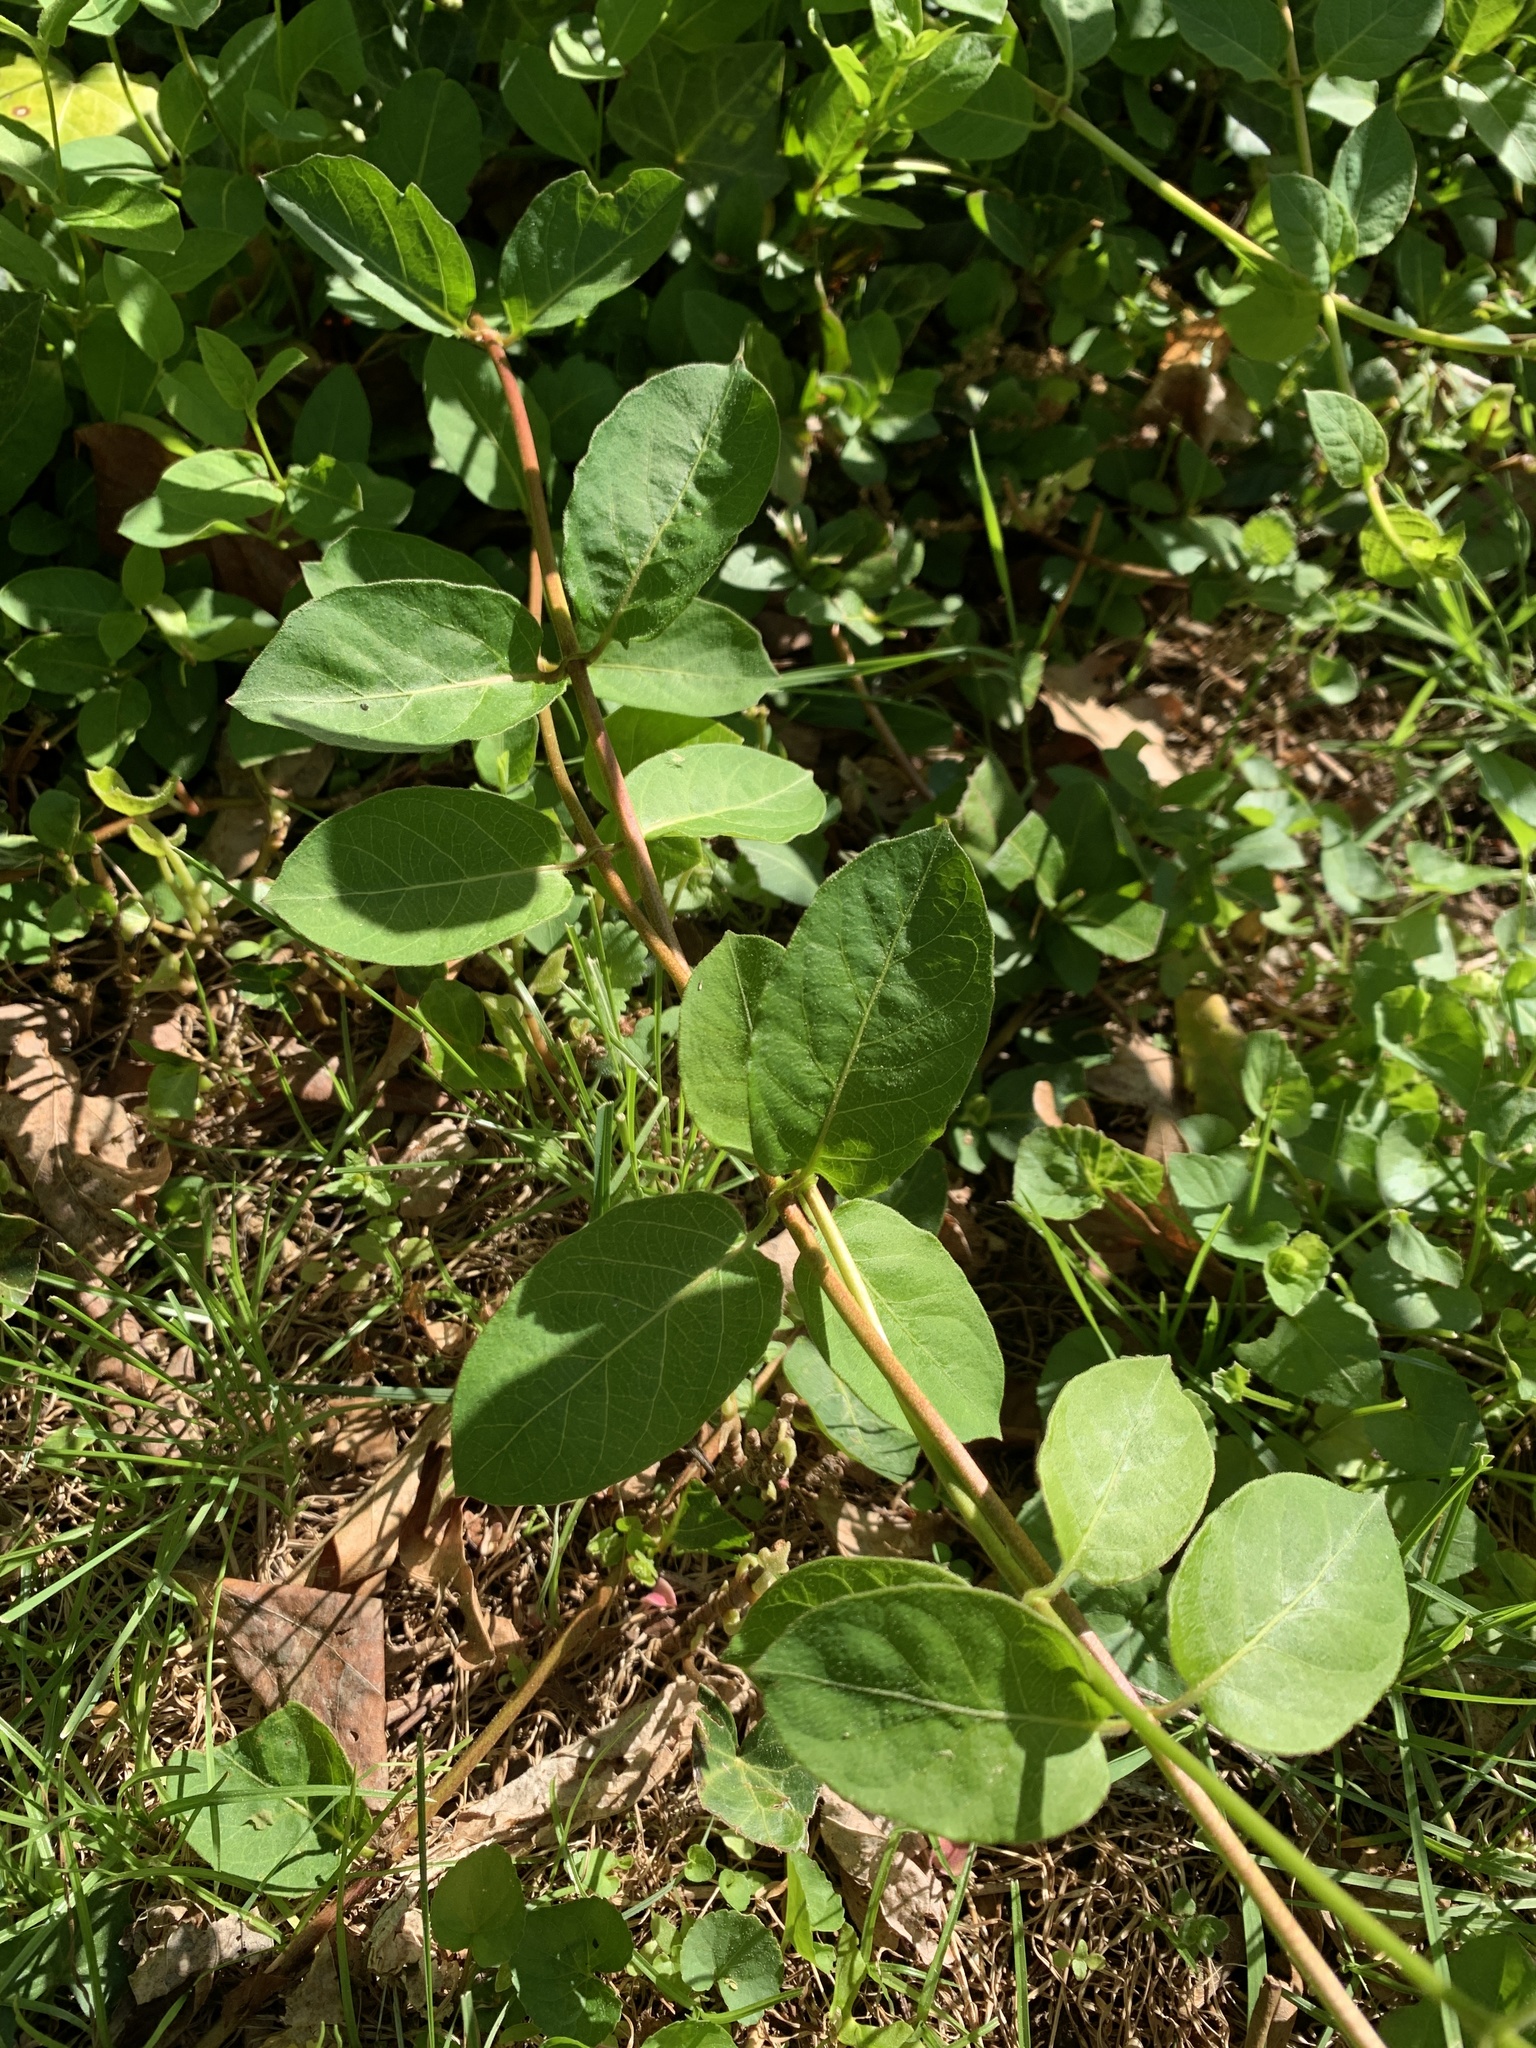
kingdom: Plantae
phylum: Tracheophyta
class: Magnoliopsida
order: Dipsacales
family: Caprifoliaceae
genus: Lonicera
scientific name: Lonicera japonica
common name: Japanese honeysuckle
